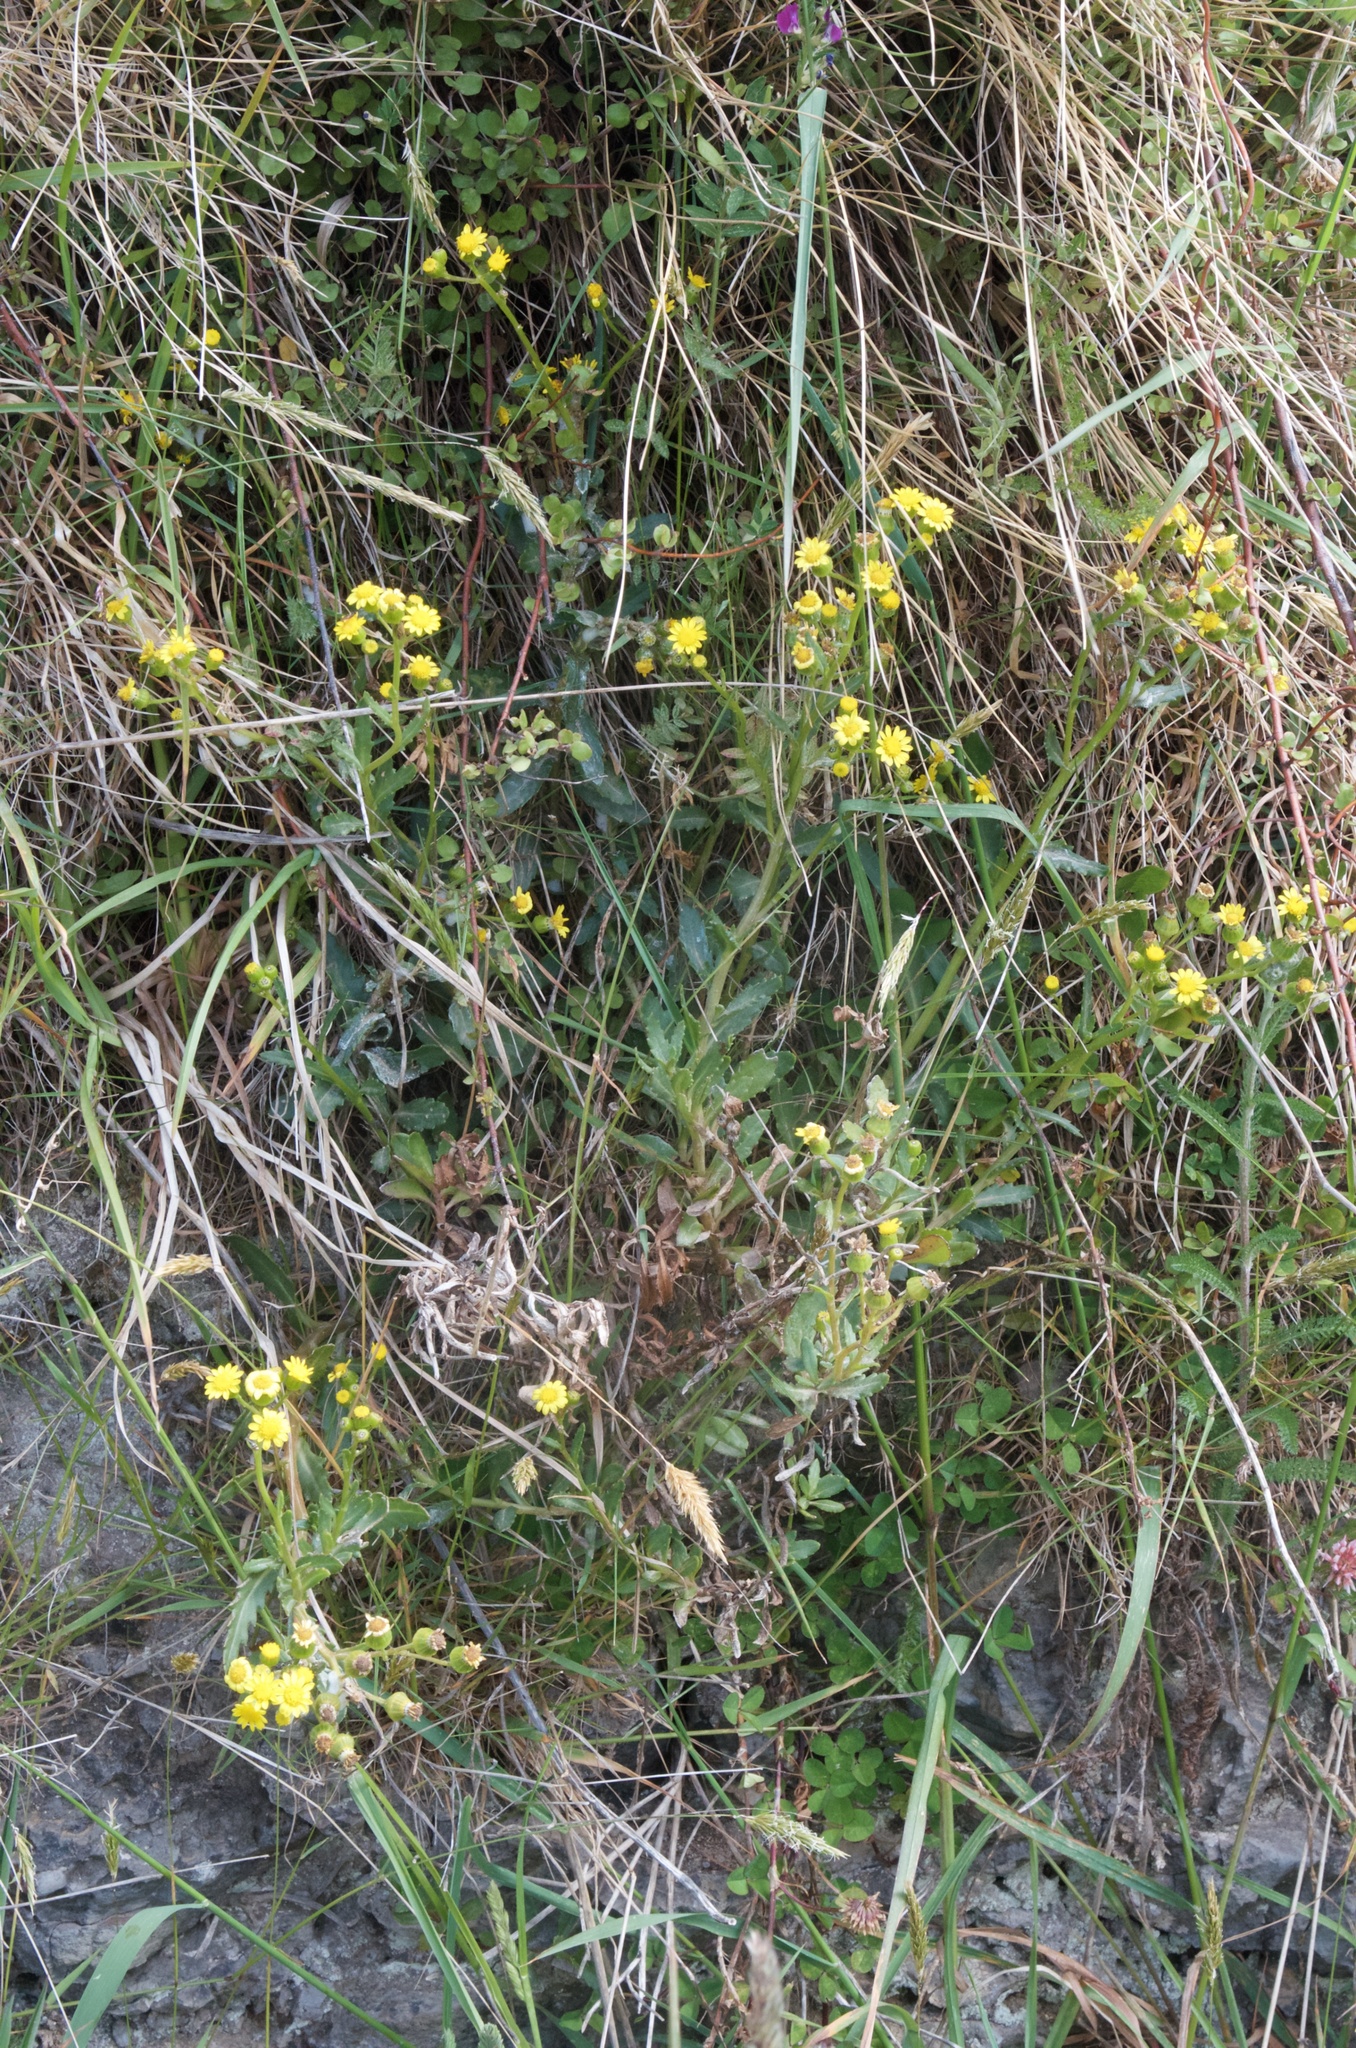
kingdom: Plantae
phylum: Tracheophyta
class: Magnoliopsida
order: Asterales
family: Asteraceae
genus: Senecio
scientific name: Senecio matatini
